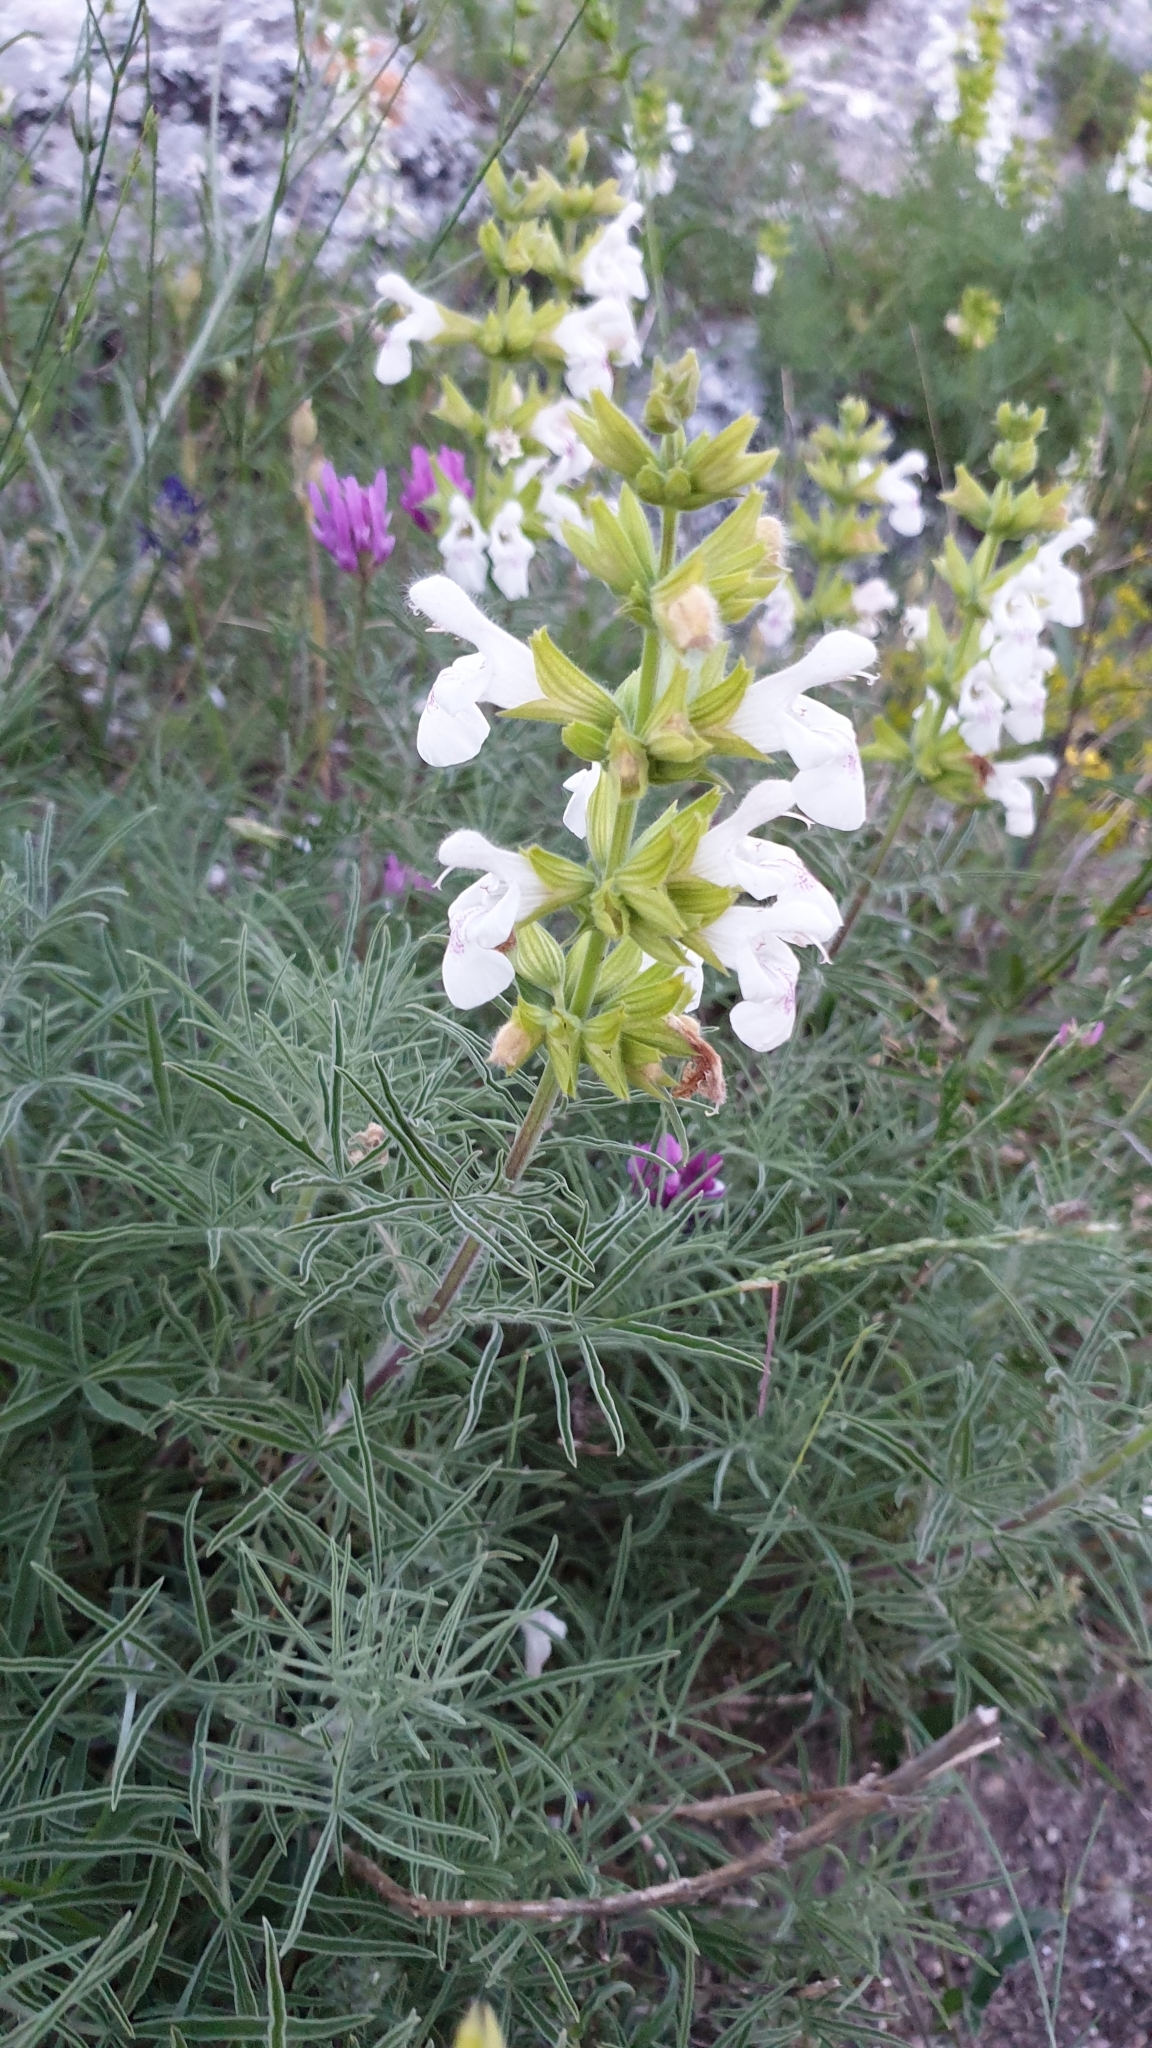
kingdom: Plantae
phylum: Tracheophyta
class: Magnoliopsida
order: Lamiales
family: Lamiaceae
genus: Salvia
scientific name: Salvia scabiosifolia
